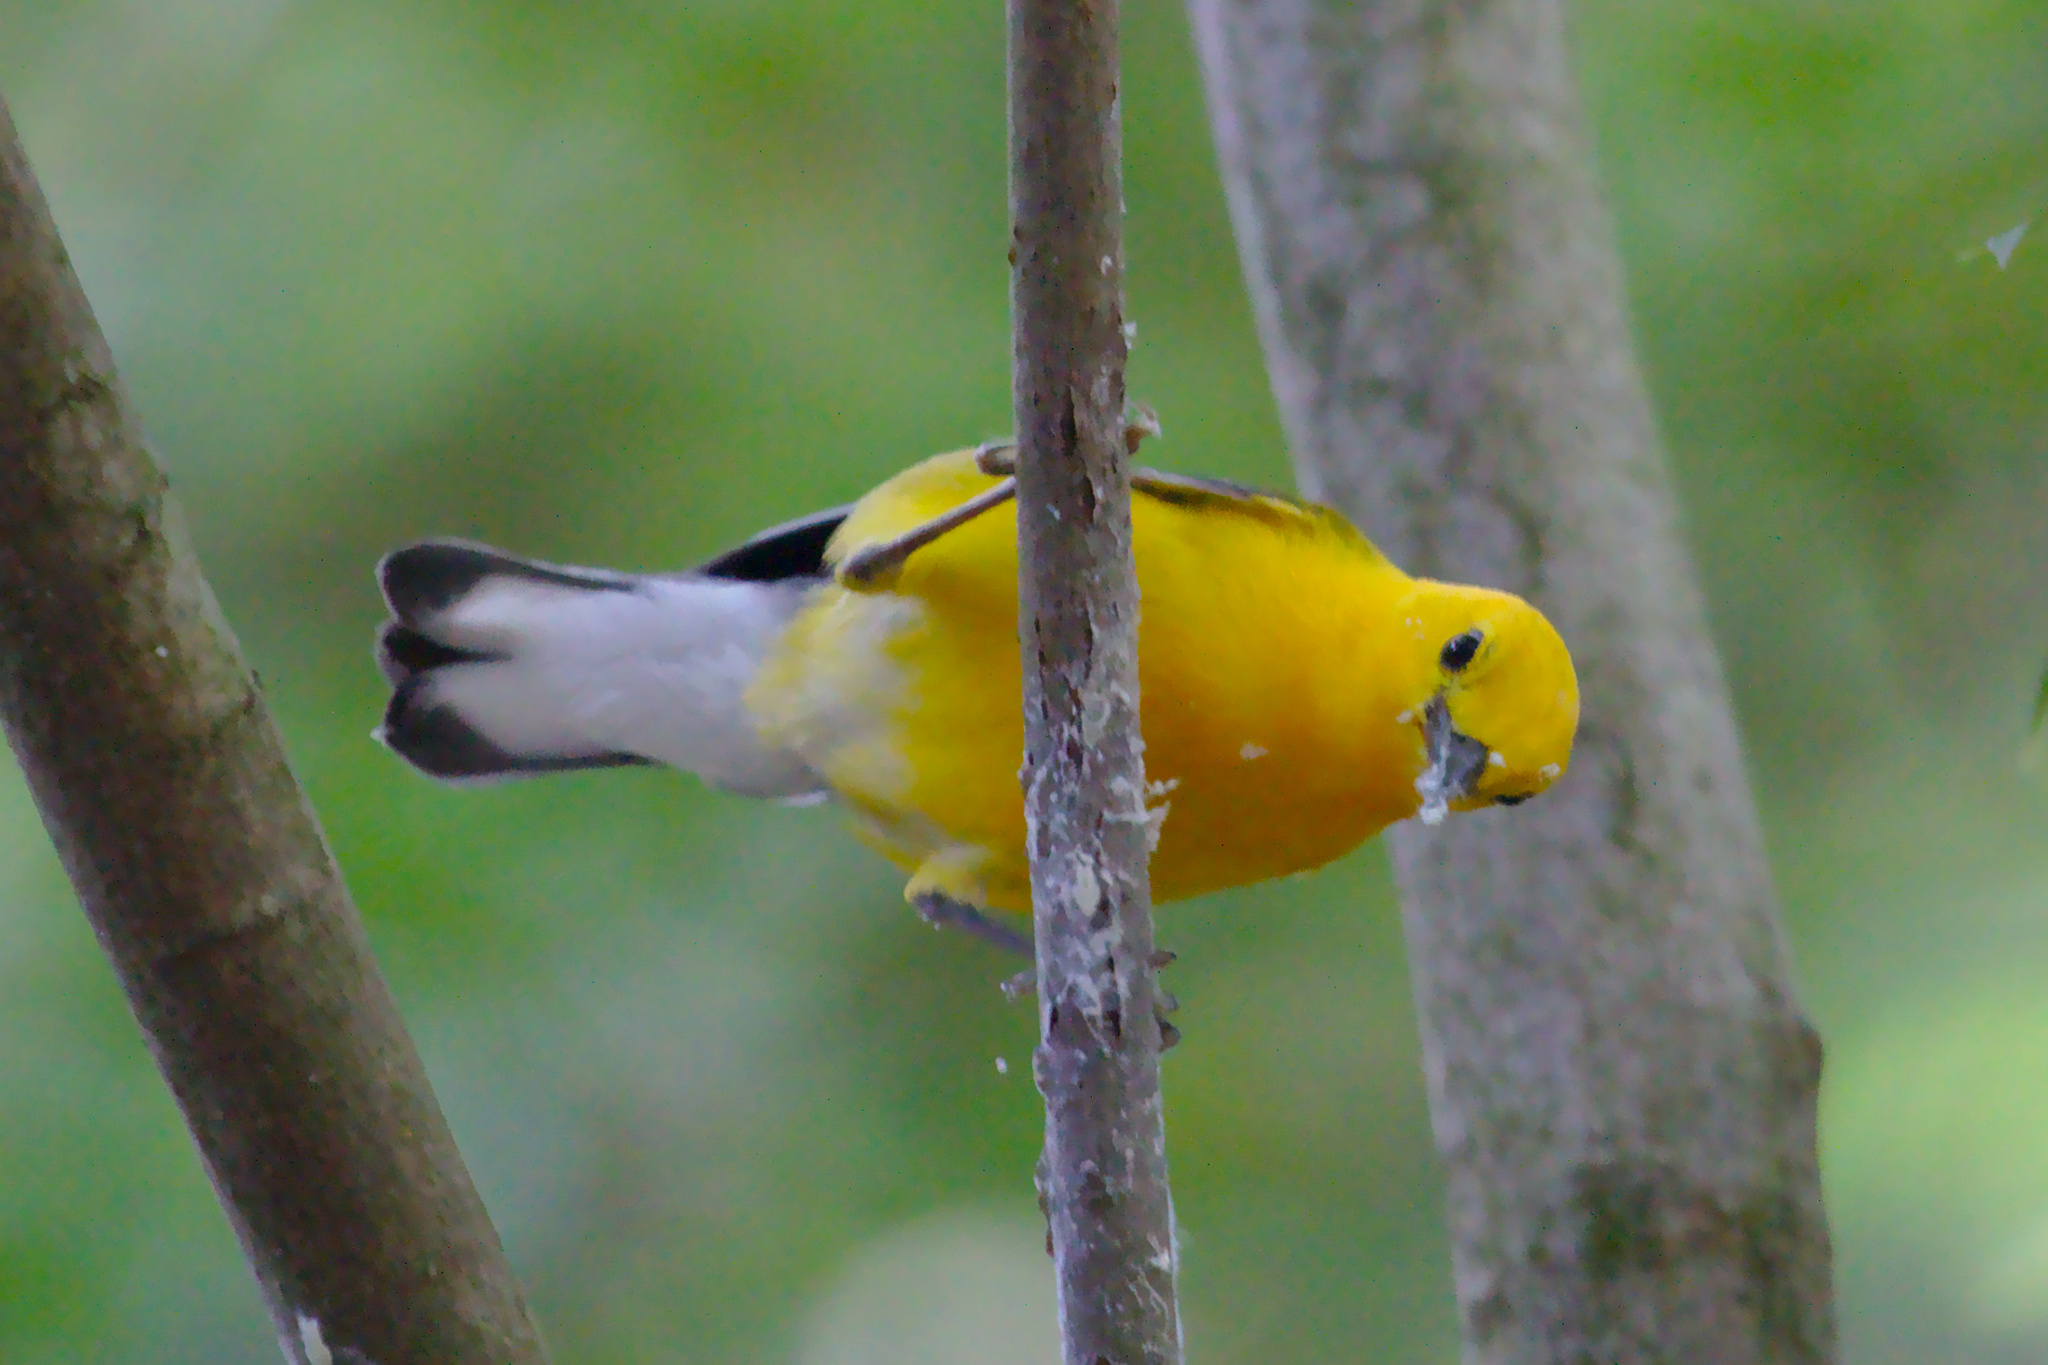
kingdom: Animalia
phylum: Chordata
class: Aves
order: Passeriformes
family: Parulidae
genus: Protonotaria
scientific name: Protonotaria citrea
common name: Prothonotary warbler
